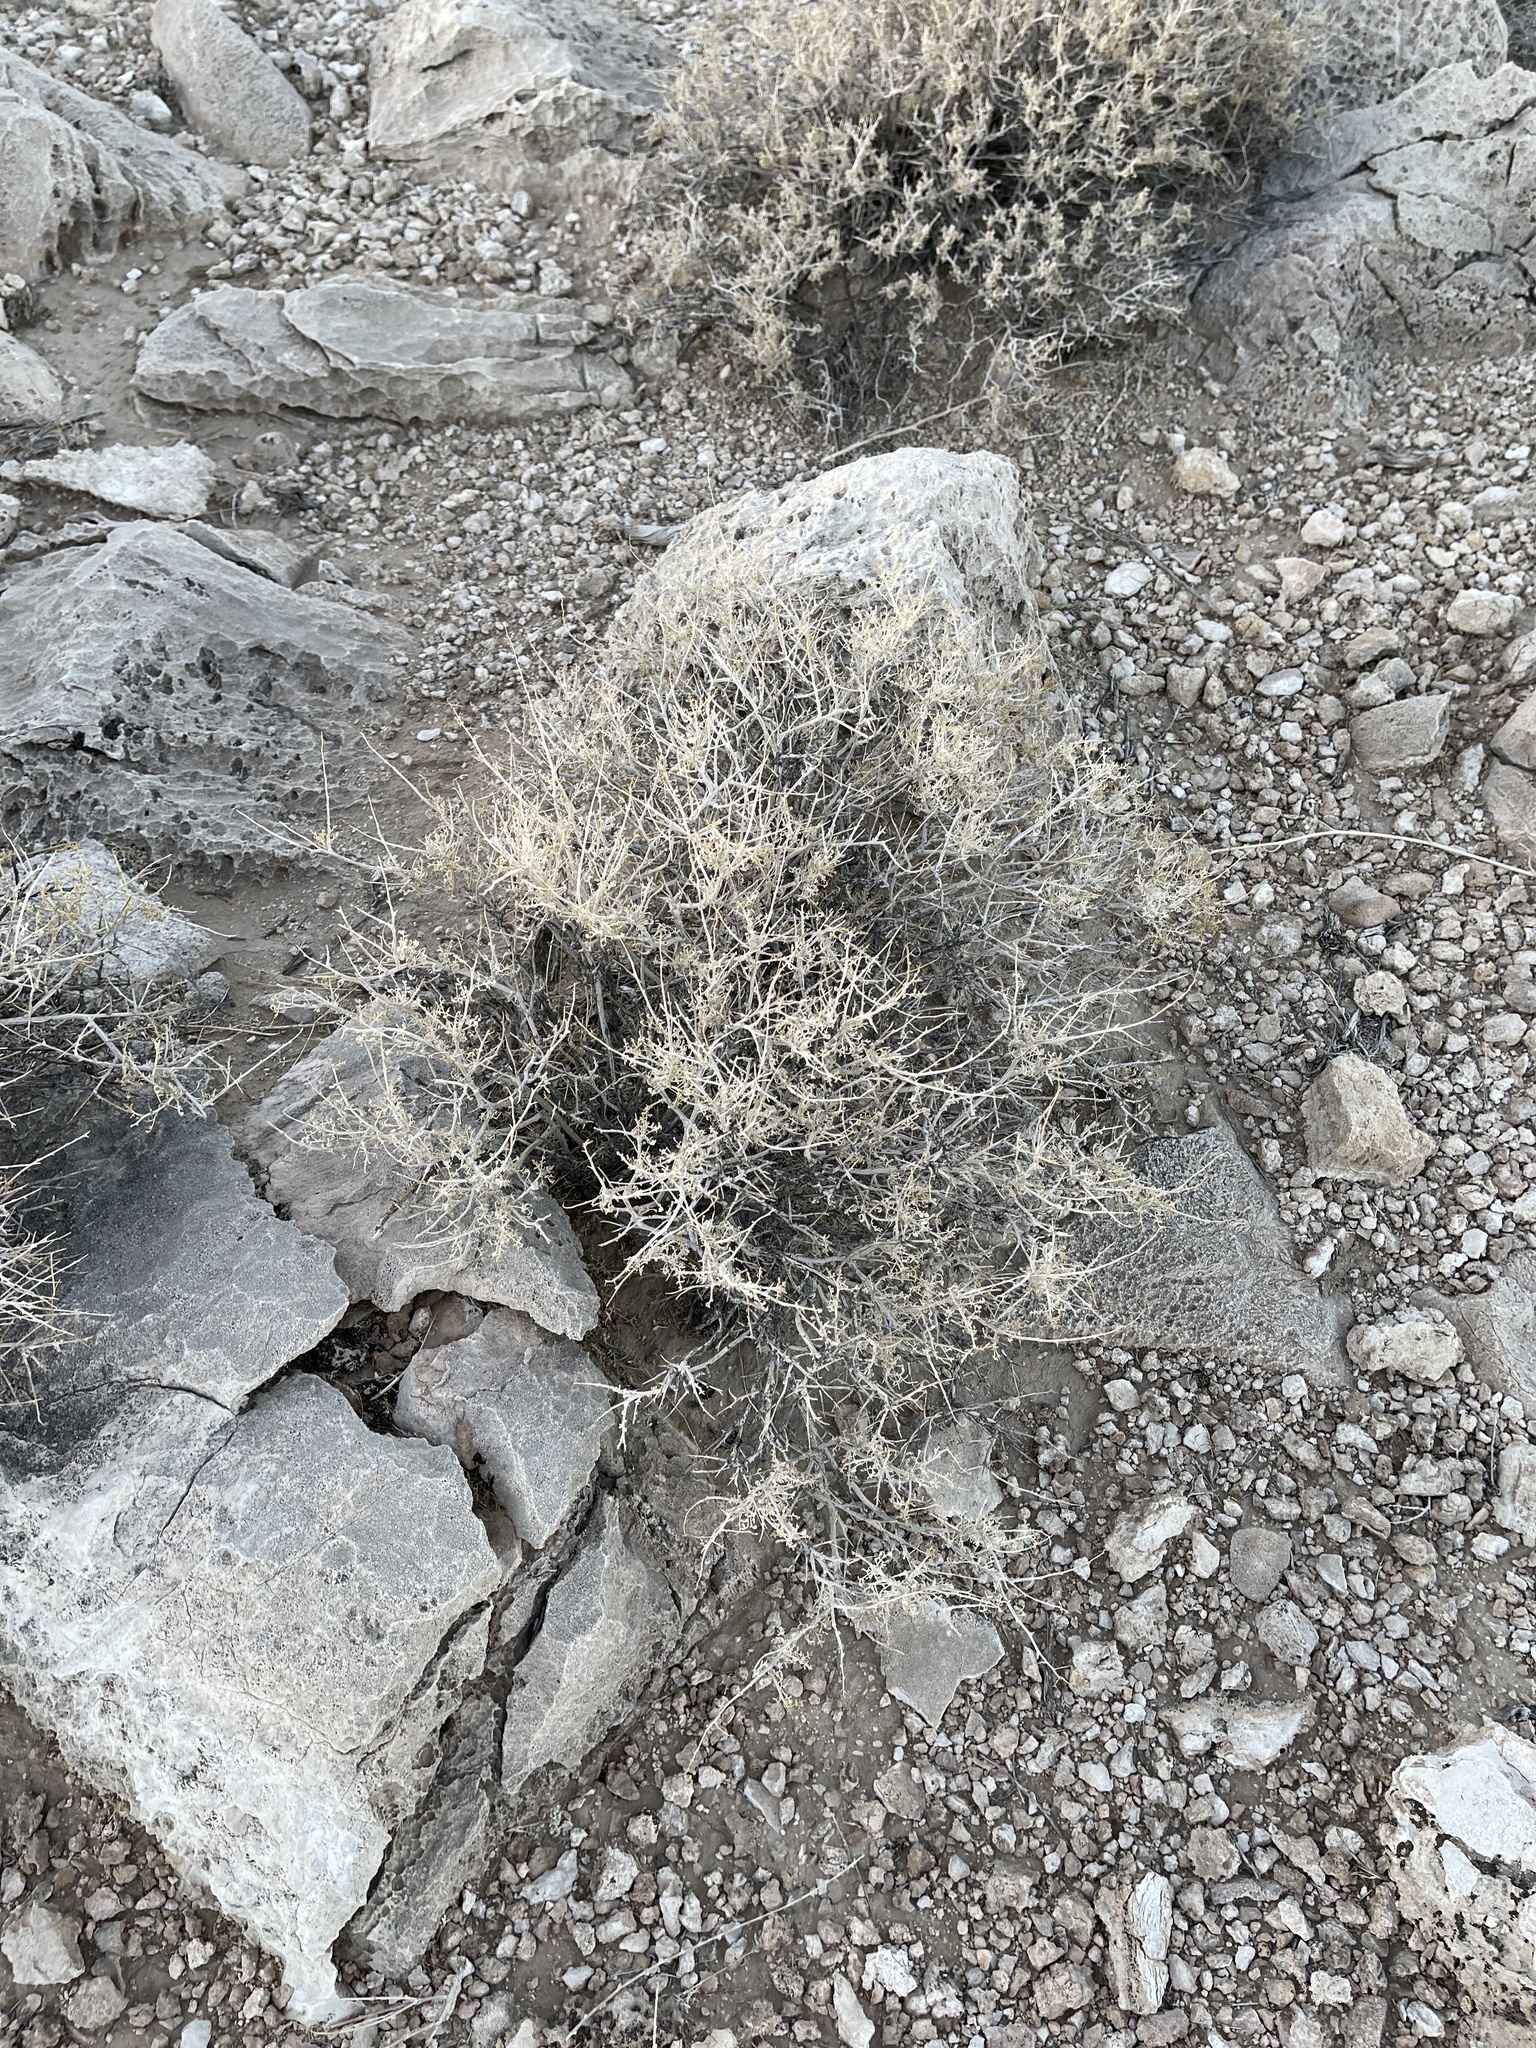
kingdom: Plantae
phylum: Tracheophyta
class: Magnoliopsida
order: Asterales
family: Asteraceae
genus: Ambrosia
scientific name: Ambrosia dumosa
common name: Bur-sage
